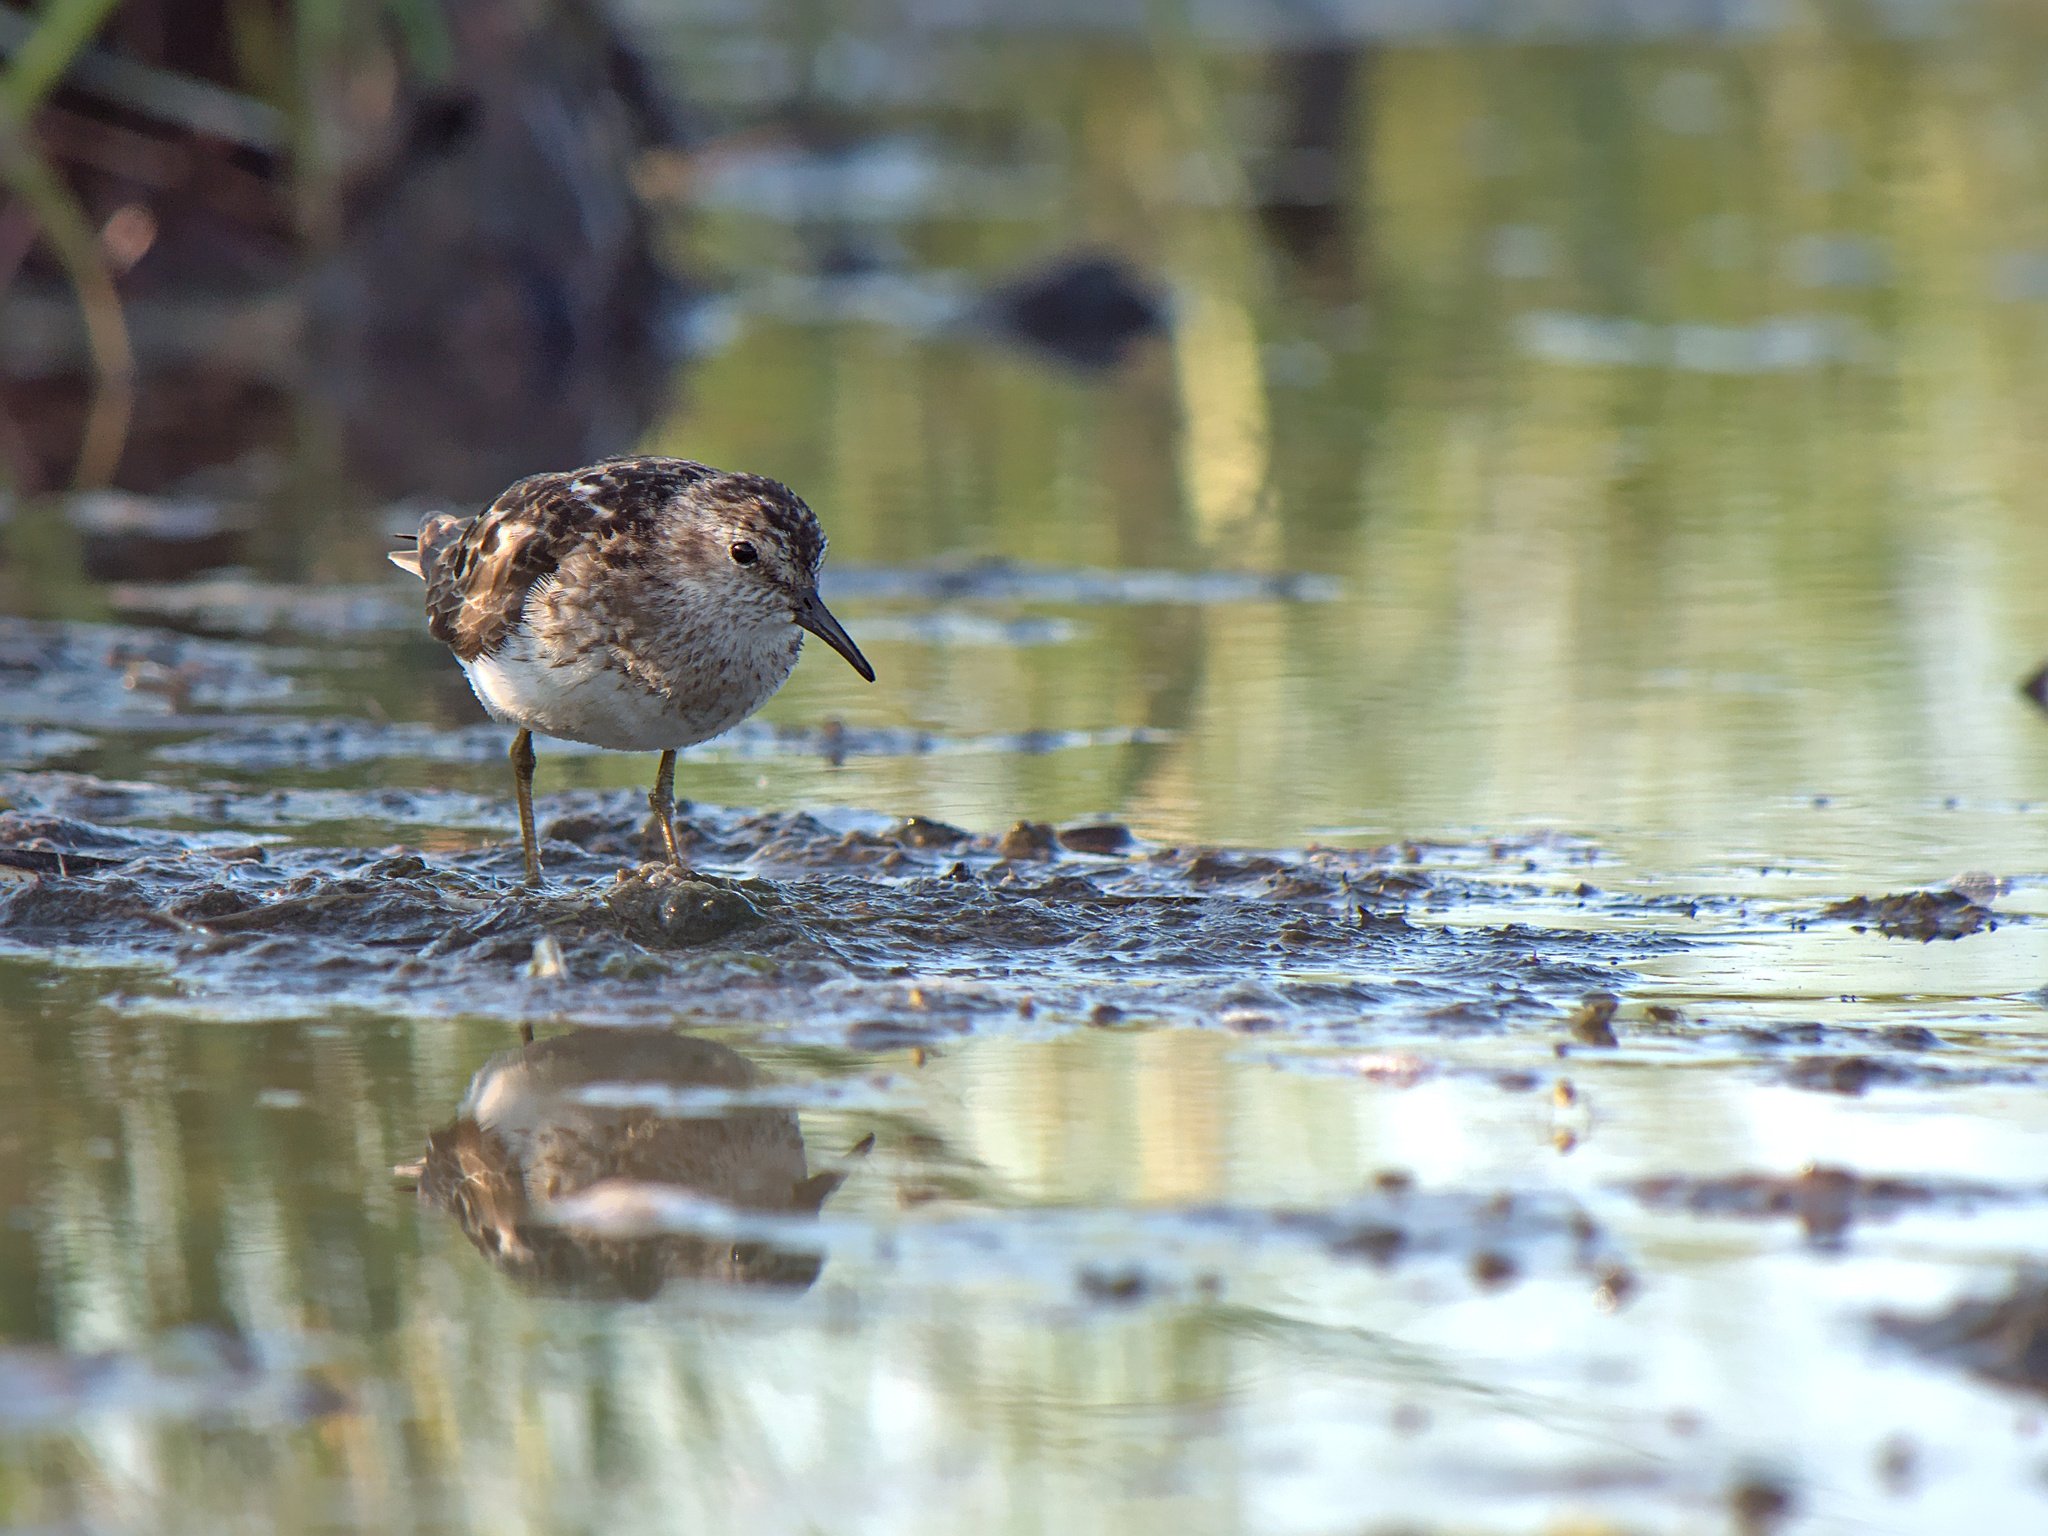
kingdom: Animalia
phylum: Chordata
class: Aves
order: Charadriiformes
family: Scolopacidae
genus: Calidris
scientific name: Calidris minutilla
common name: Least sandpiper
